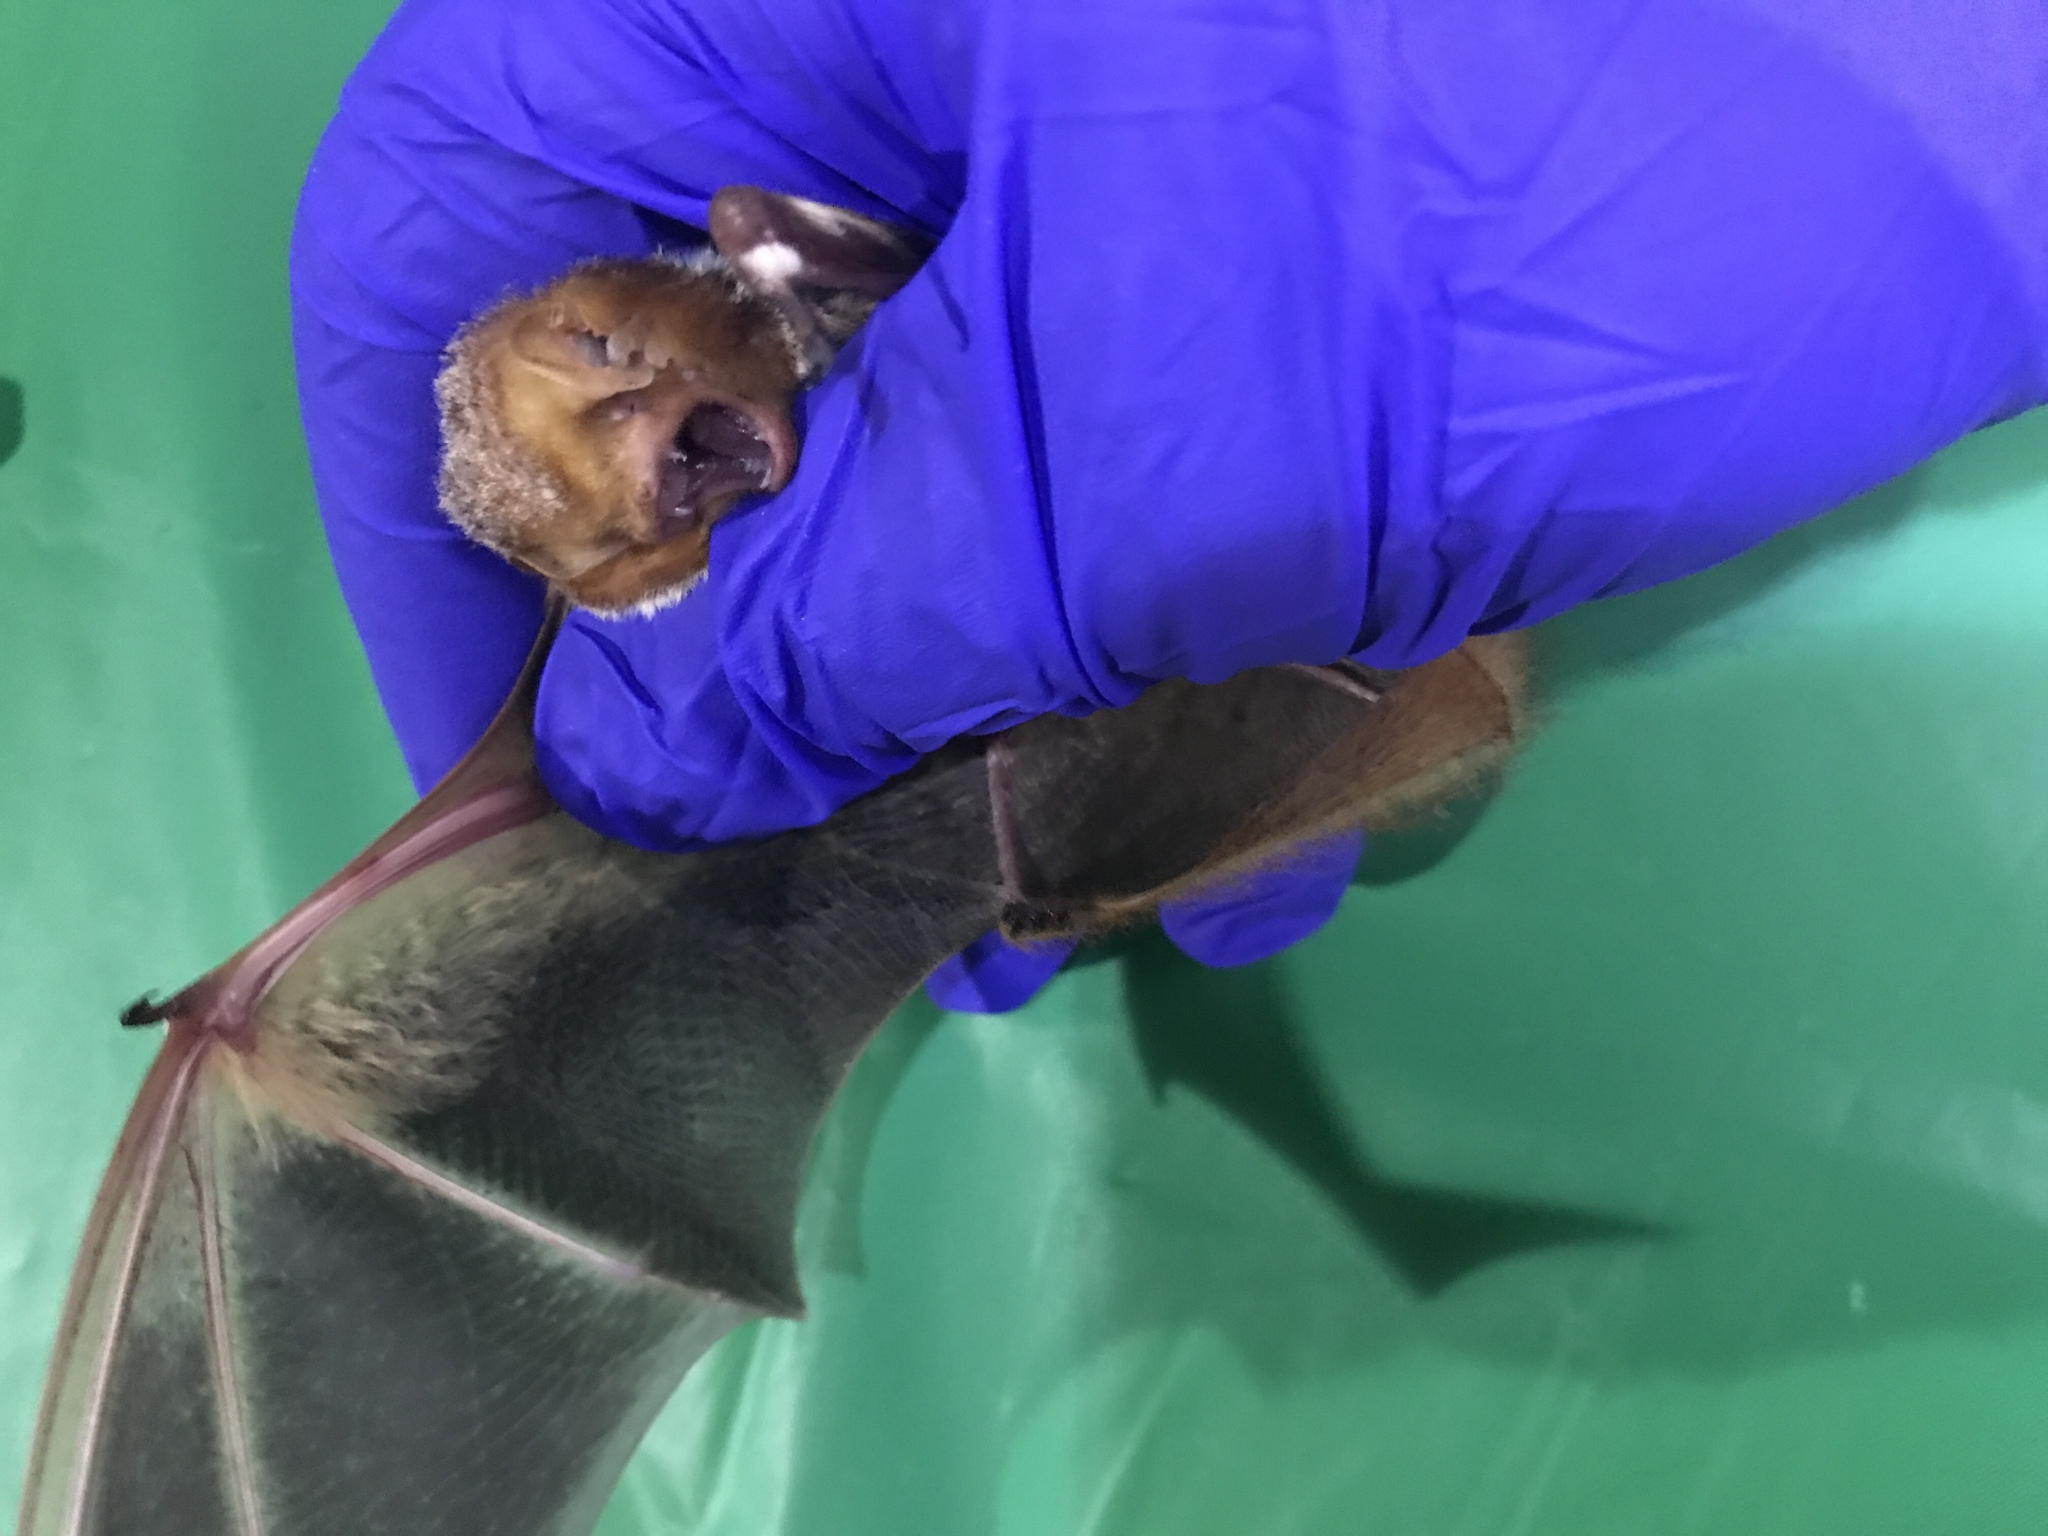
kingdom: Animalia
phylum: Chordata
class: Mammalia
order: Chiroptera
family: Vespertilionidae
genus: Lasiurus
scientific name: Lasiurus borealis
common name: Eastern red bat
